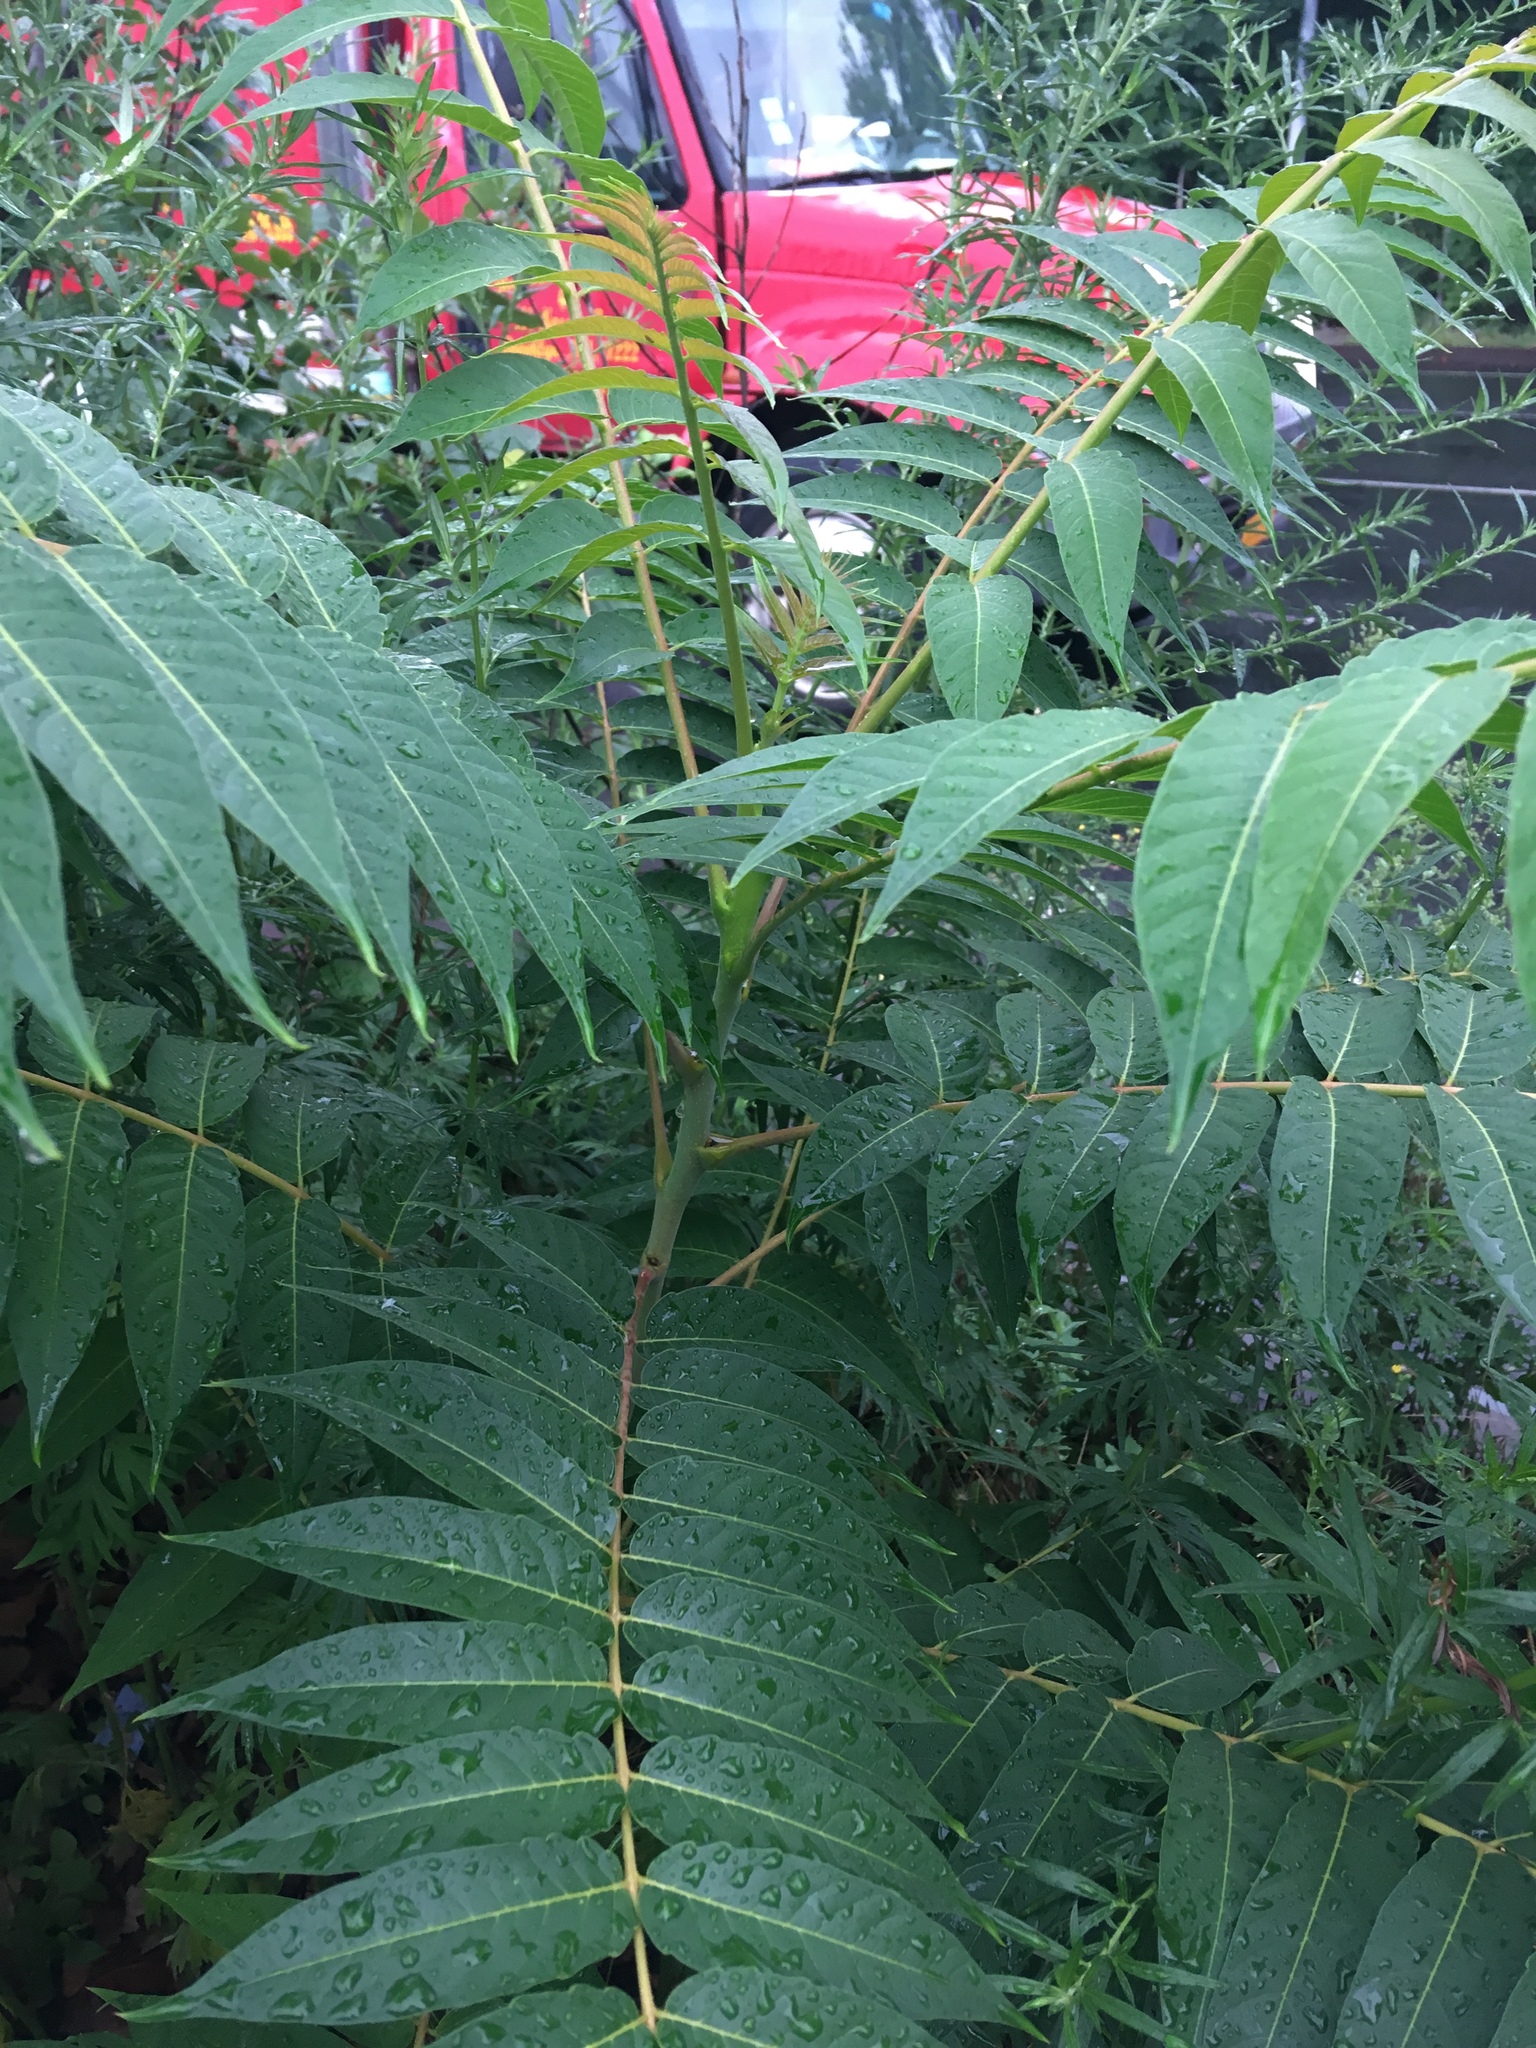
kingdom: Plantae
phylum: Tracheophyta
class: Magnoliopsida
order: Sapindales
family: Simaroubaceae
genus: Ailanthus
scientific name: Ailanthus altissima
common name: Tree-of-heaven
